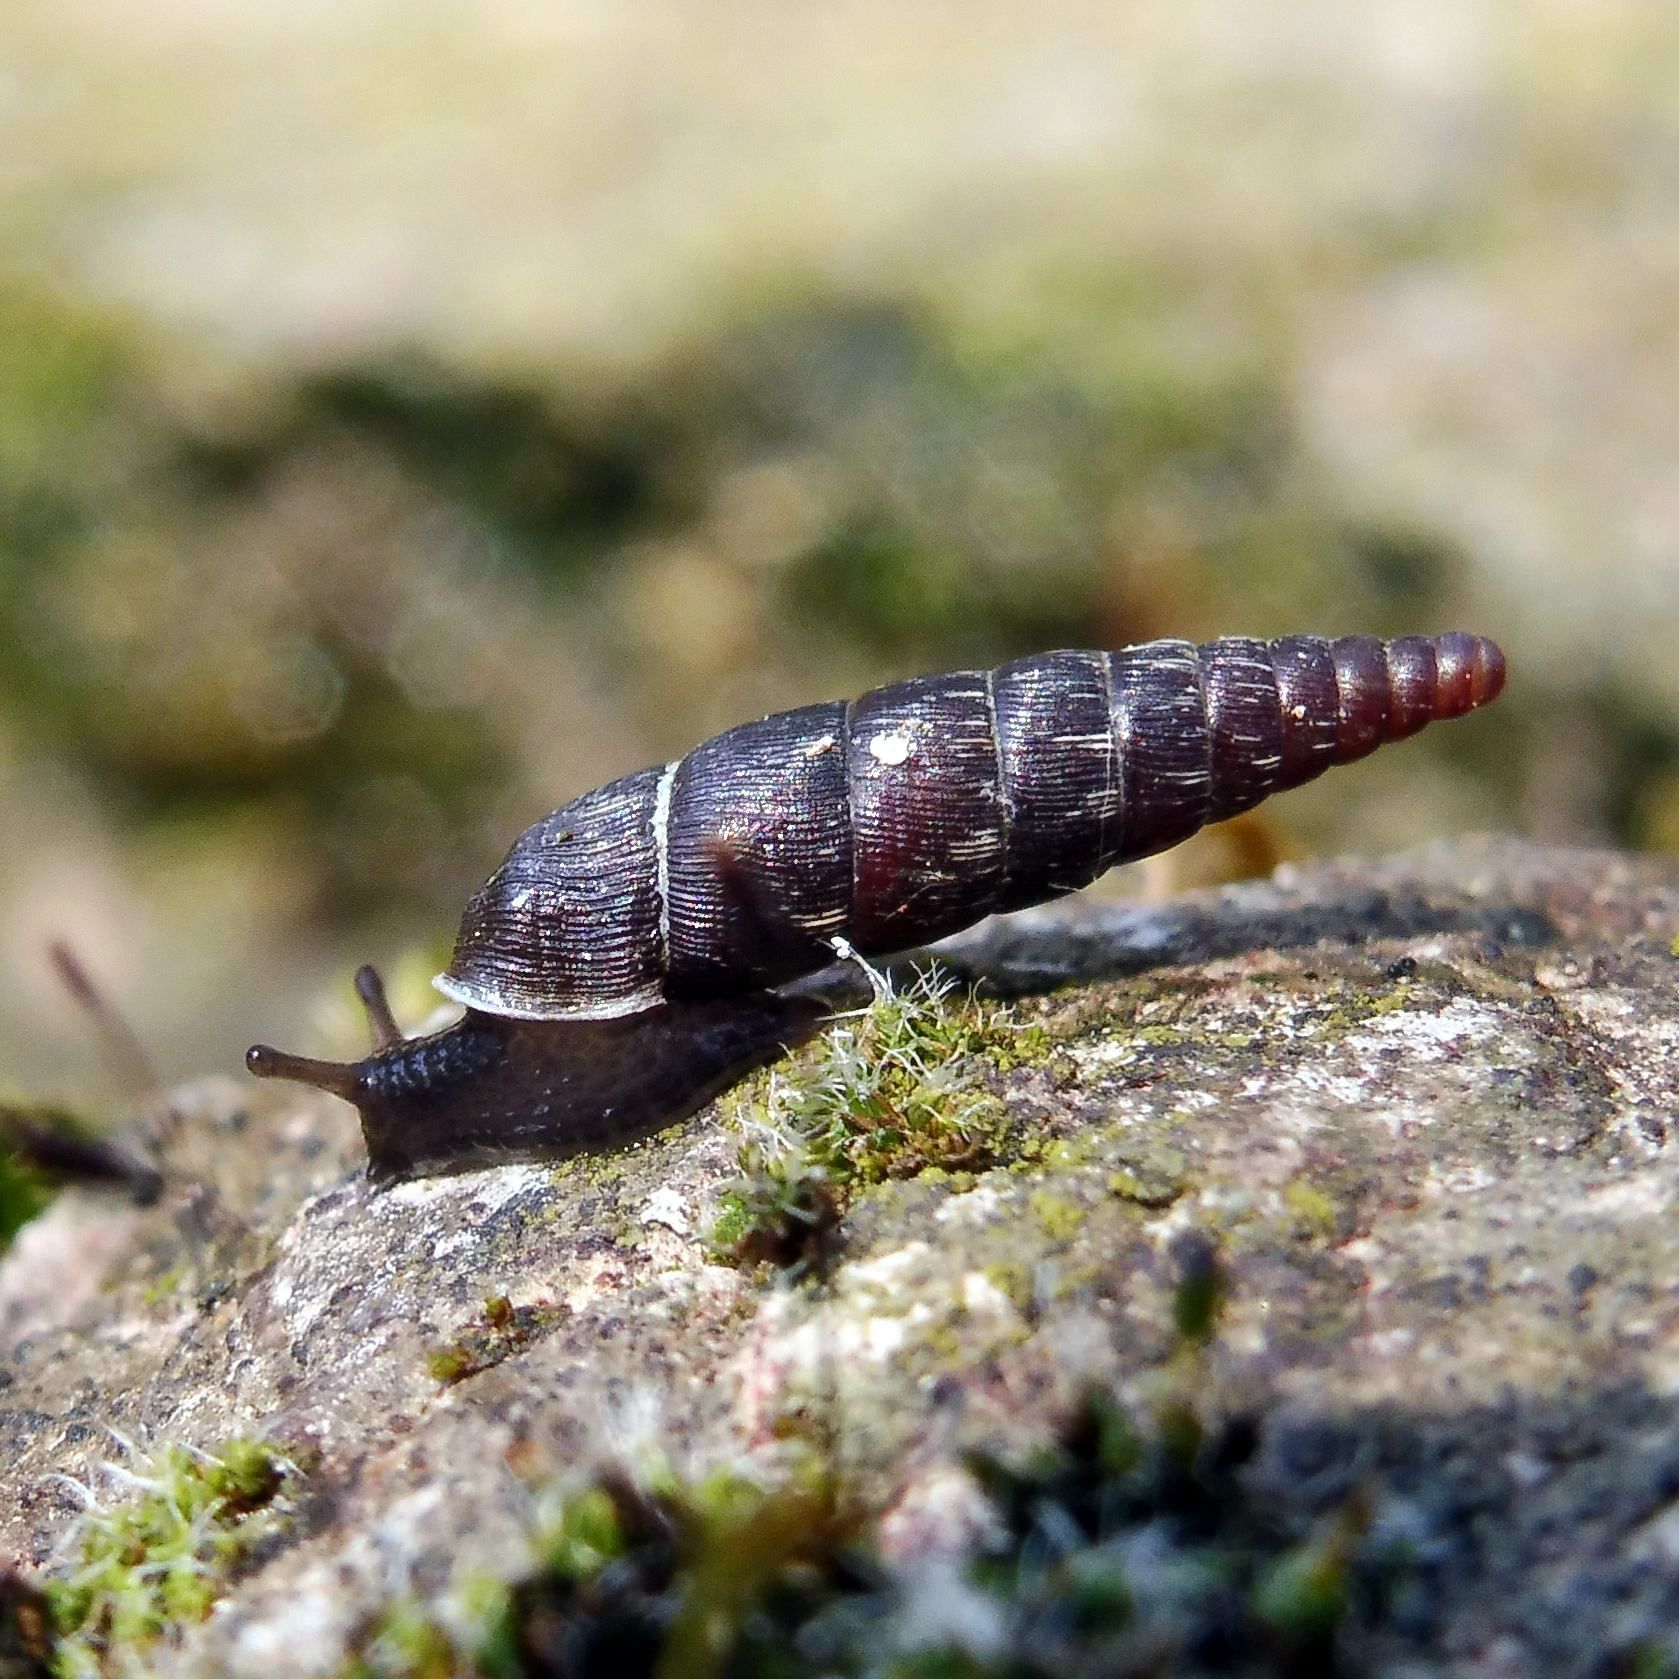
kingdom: Animalia
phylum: Mollusca
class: Gastropoda
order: Stylommatophora
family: Clausiliidae
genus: Clausilia
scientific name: Clausilia bidentata
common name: Two-toothed door snail
